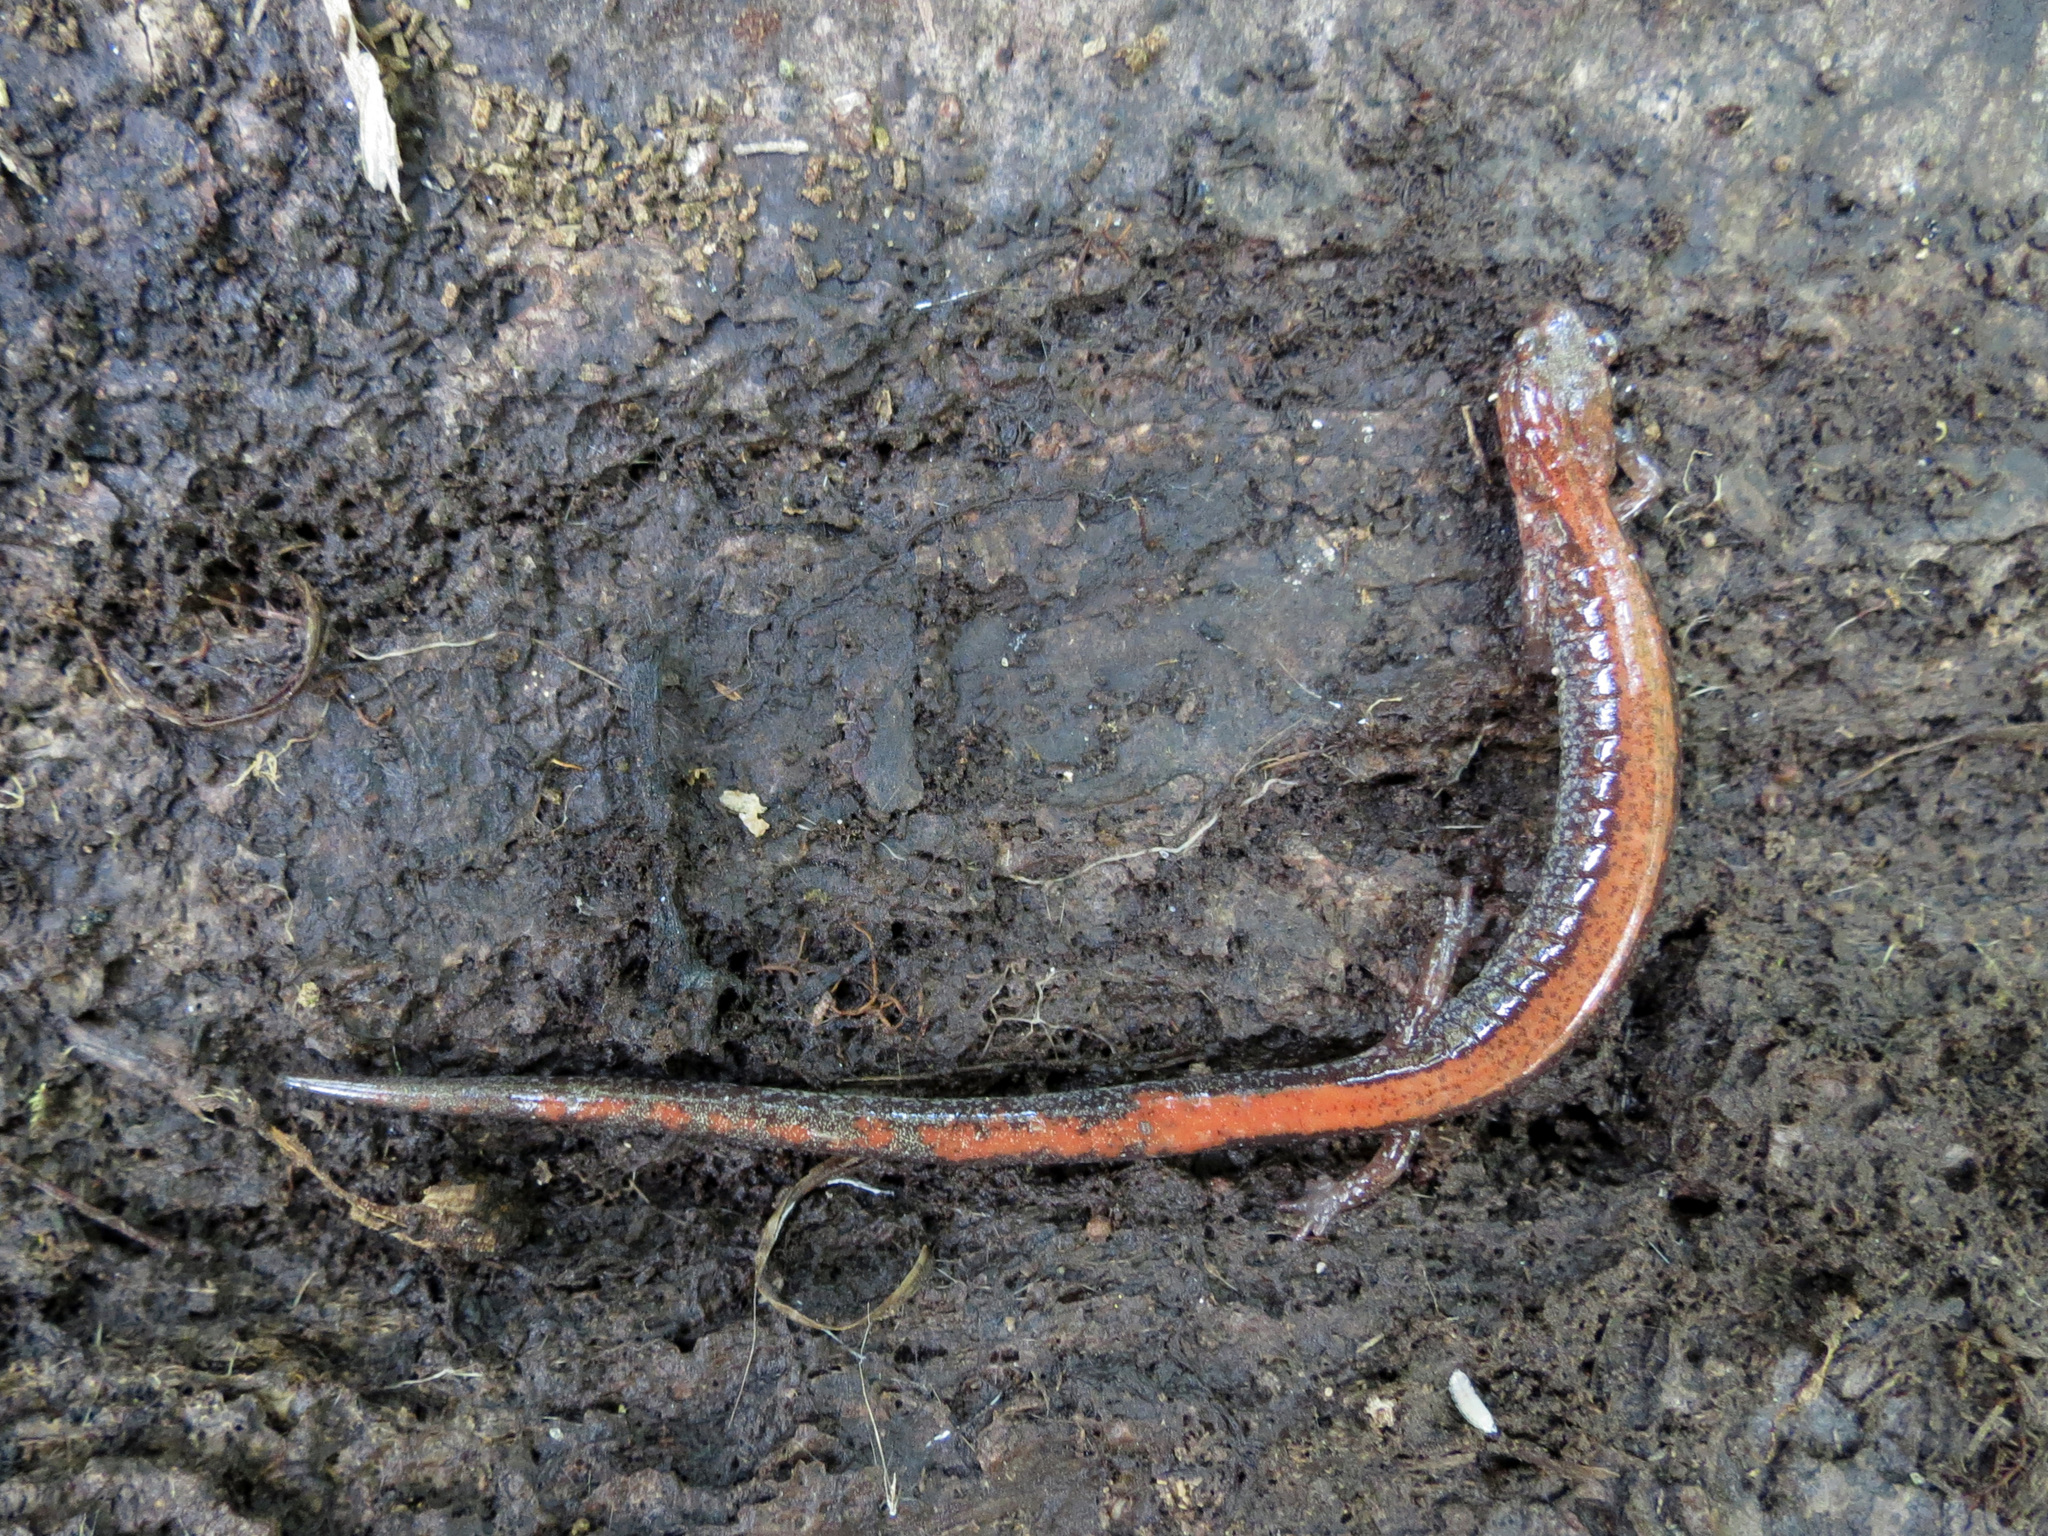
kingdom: Animalia
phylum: Chordata
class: Amphibia
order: Caudata
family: Plethodontidae
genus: Plethodon
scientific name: Plethodon cinereus
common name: Redback salamander
